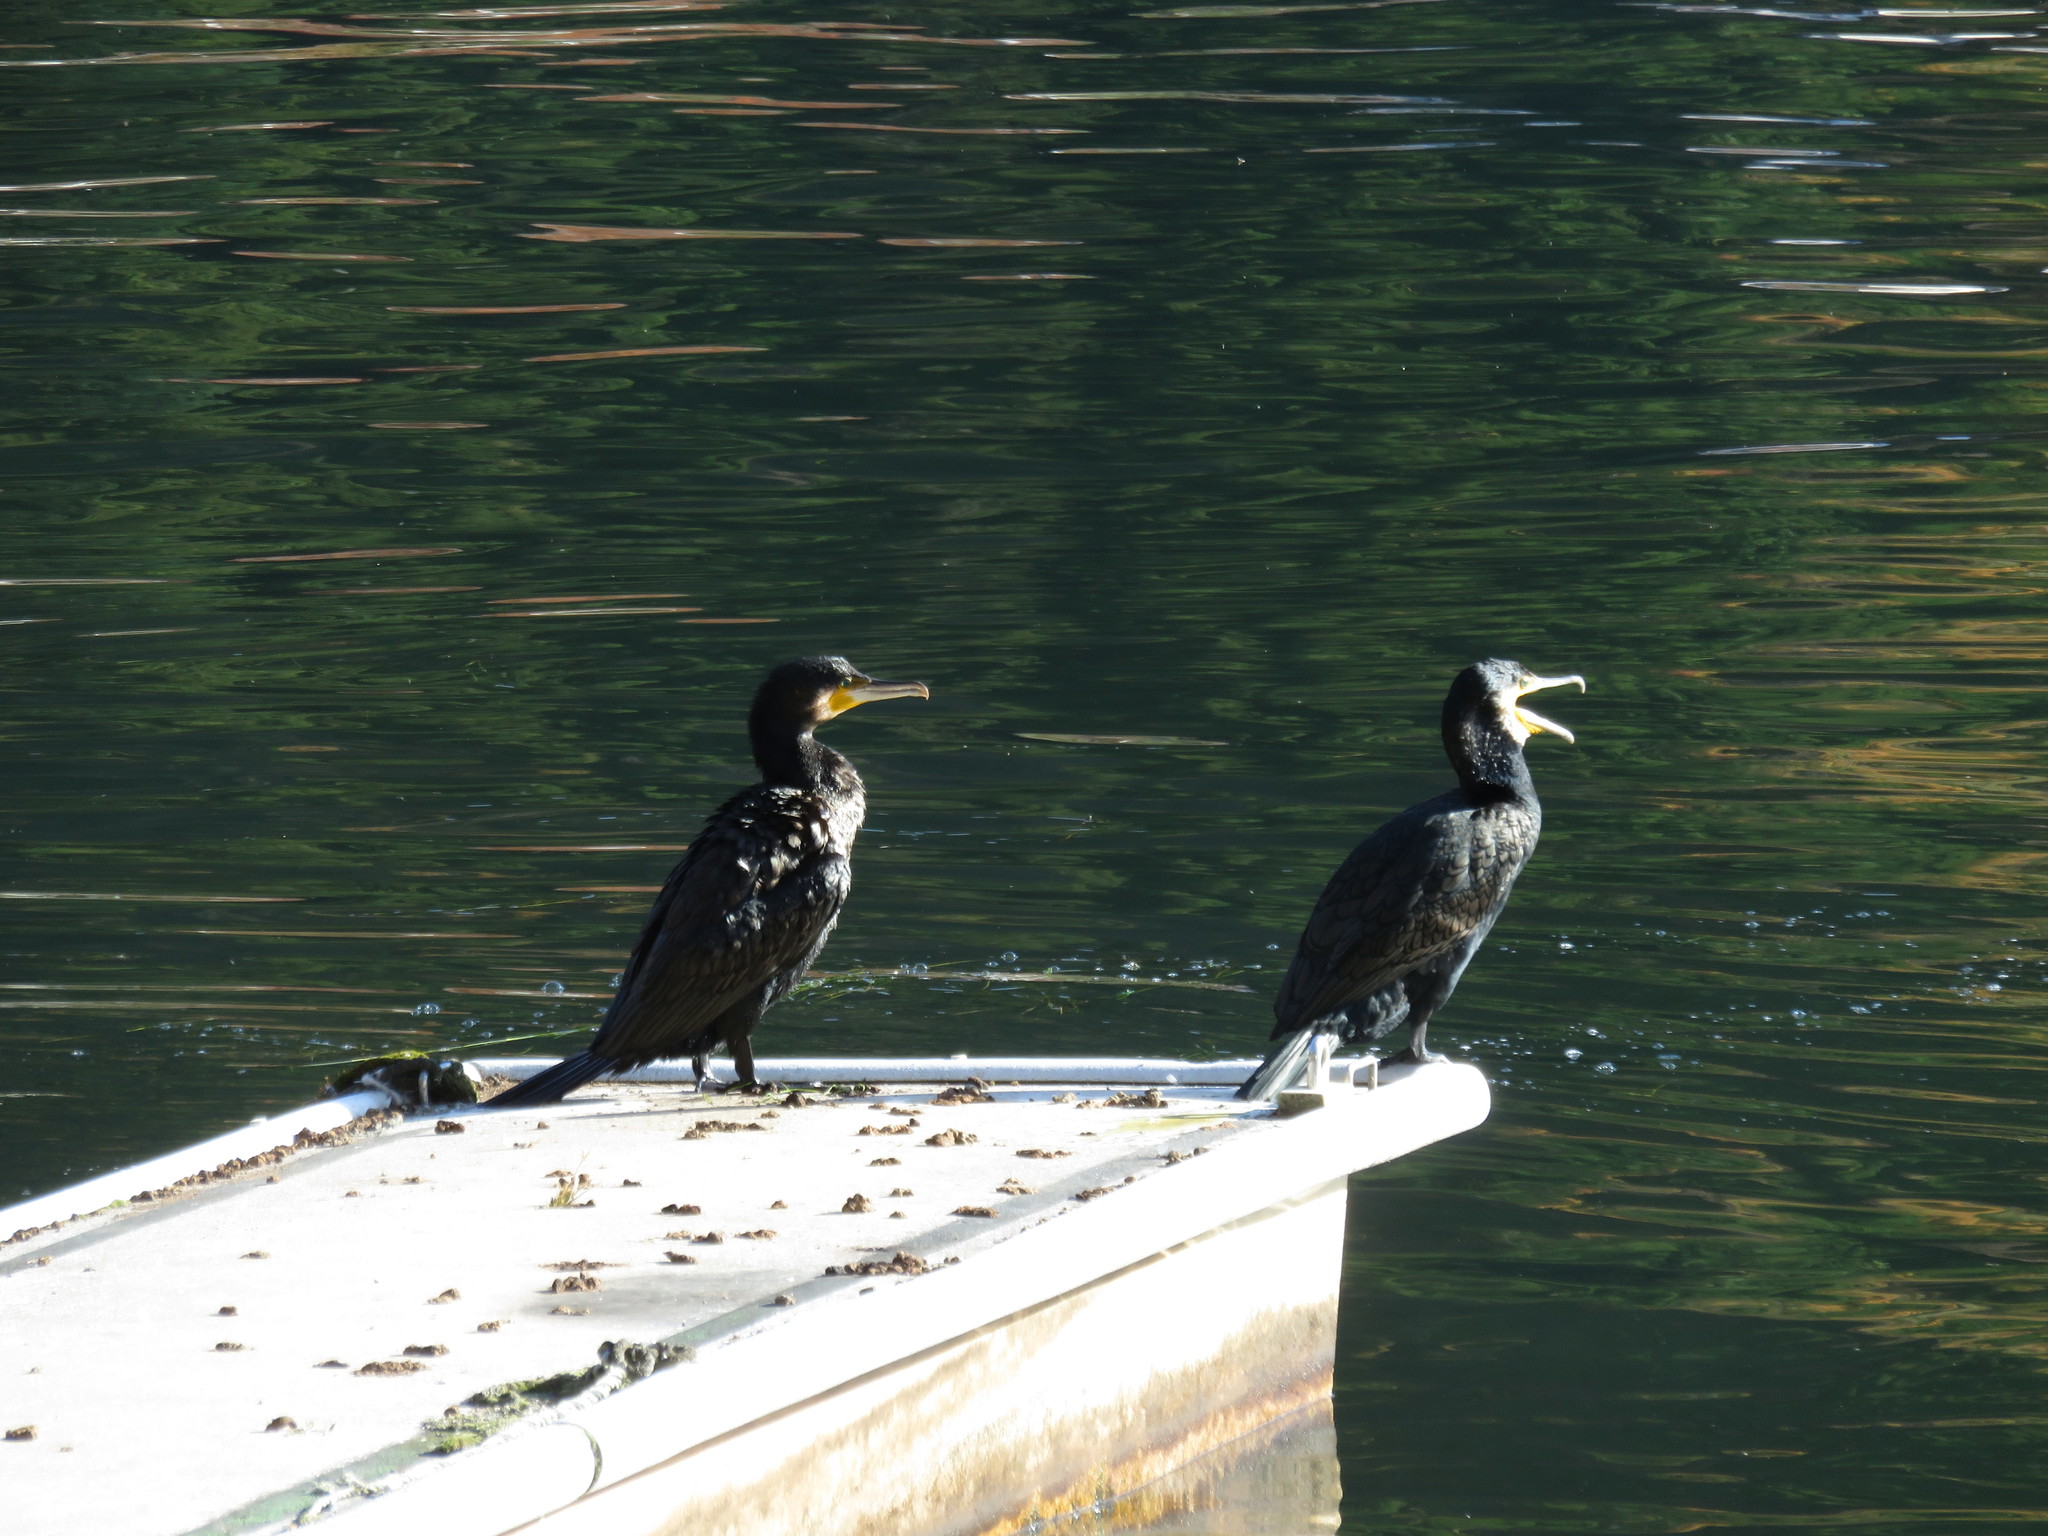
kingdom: Animalia
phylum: Chordata
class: Aves
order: Suliformes
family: Phalacrocoracidae
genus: Phalacrocorax
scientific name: Phalacrocorax carbo
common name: Great cormorant
